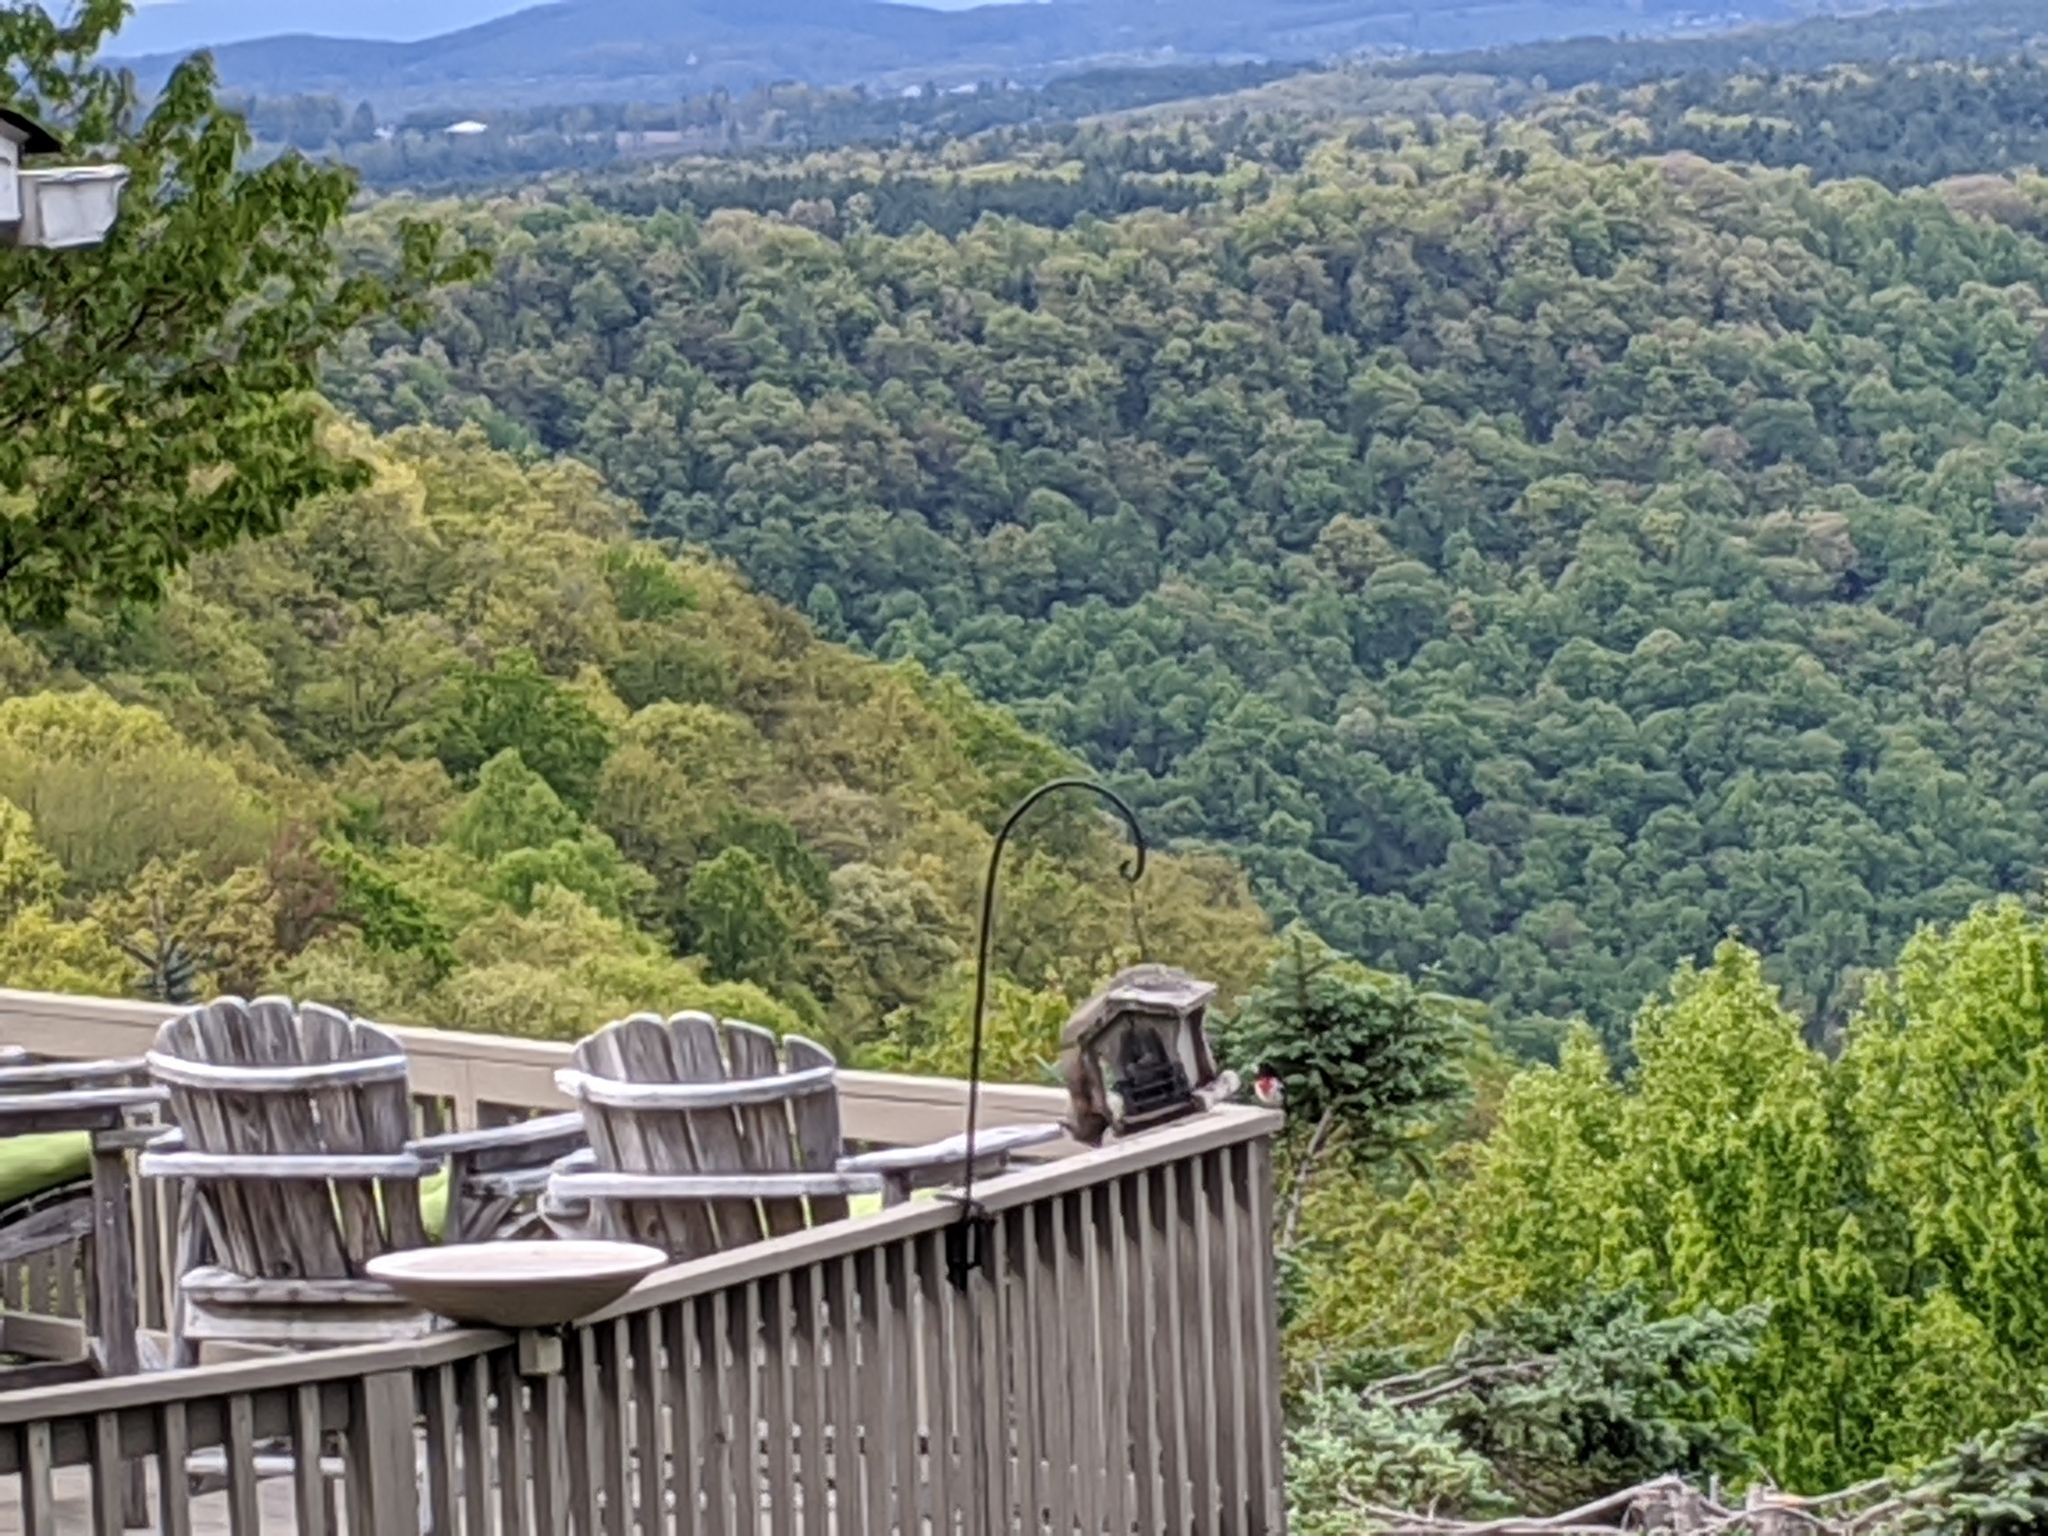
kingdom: Animalia
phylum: Chordata
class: Aves
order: Passeriformes
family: Cardinalidae
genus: Pheucticus
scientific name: Pheucticus ludovicianus
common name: Rose-breasted grosbeak
